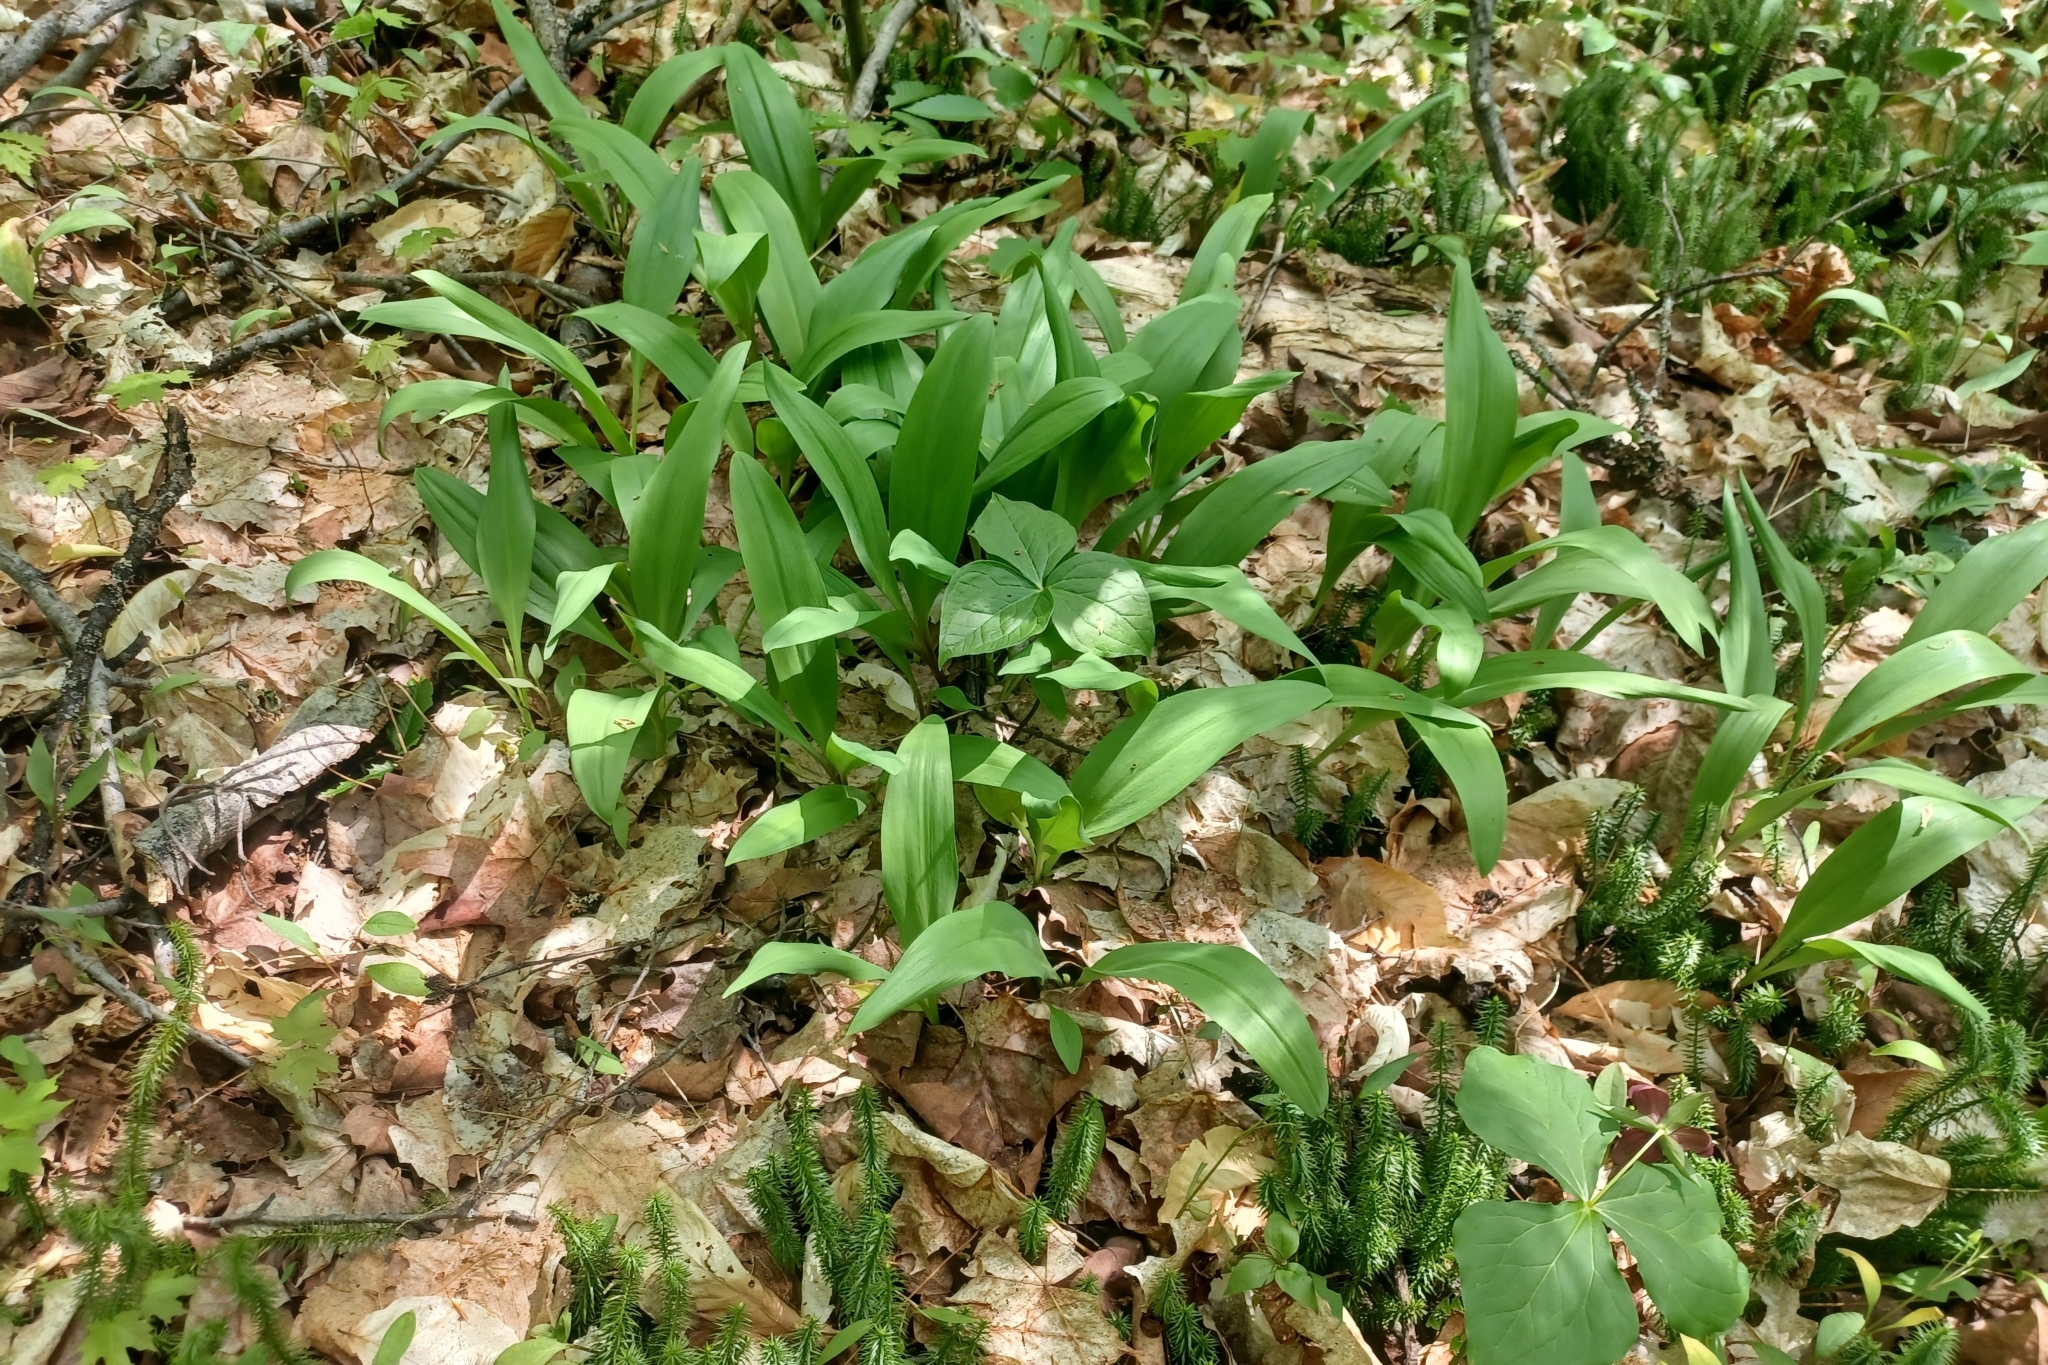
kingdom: Plantae
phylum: Tracheophyta
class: Liliopsida
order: Asparagales
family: Amaryllidaceae
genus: Allium
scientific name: Allium tricoccum
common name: Ramp
